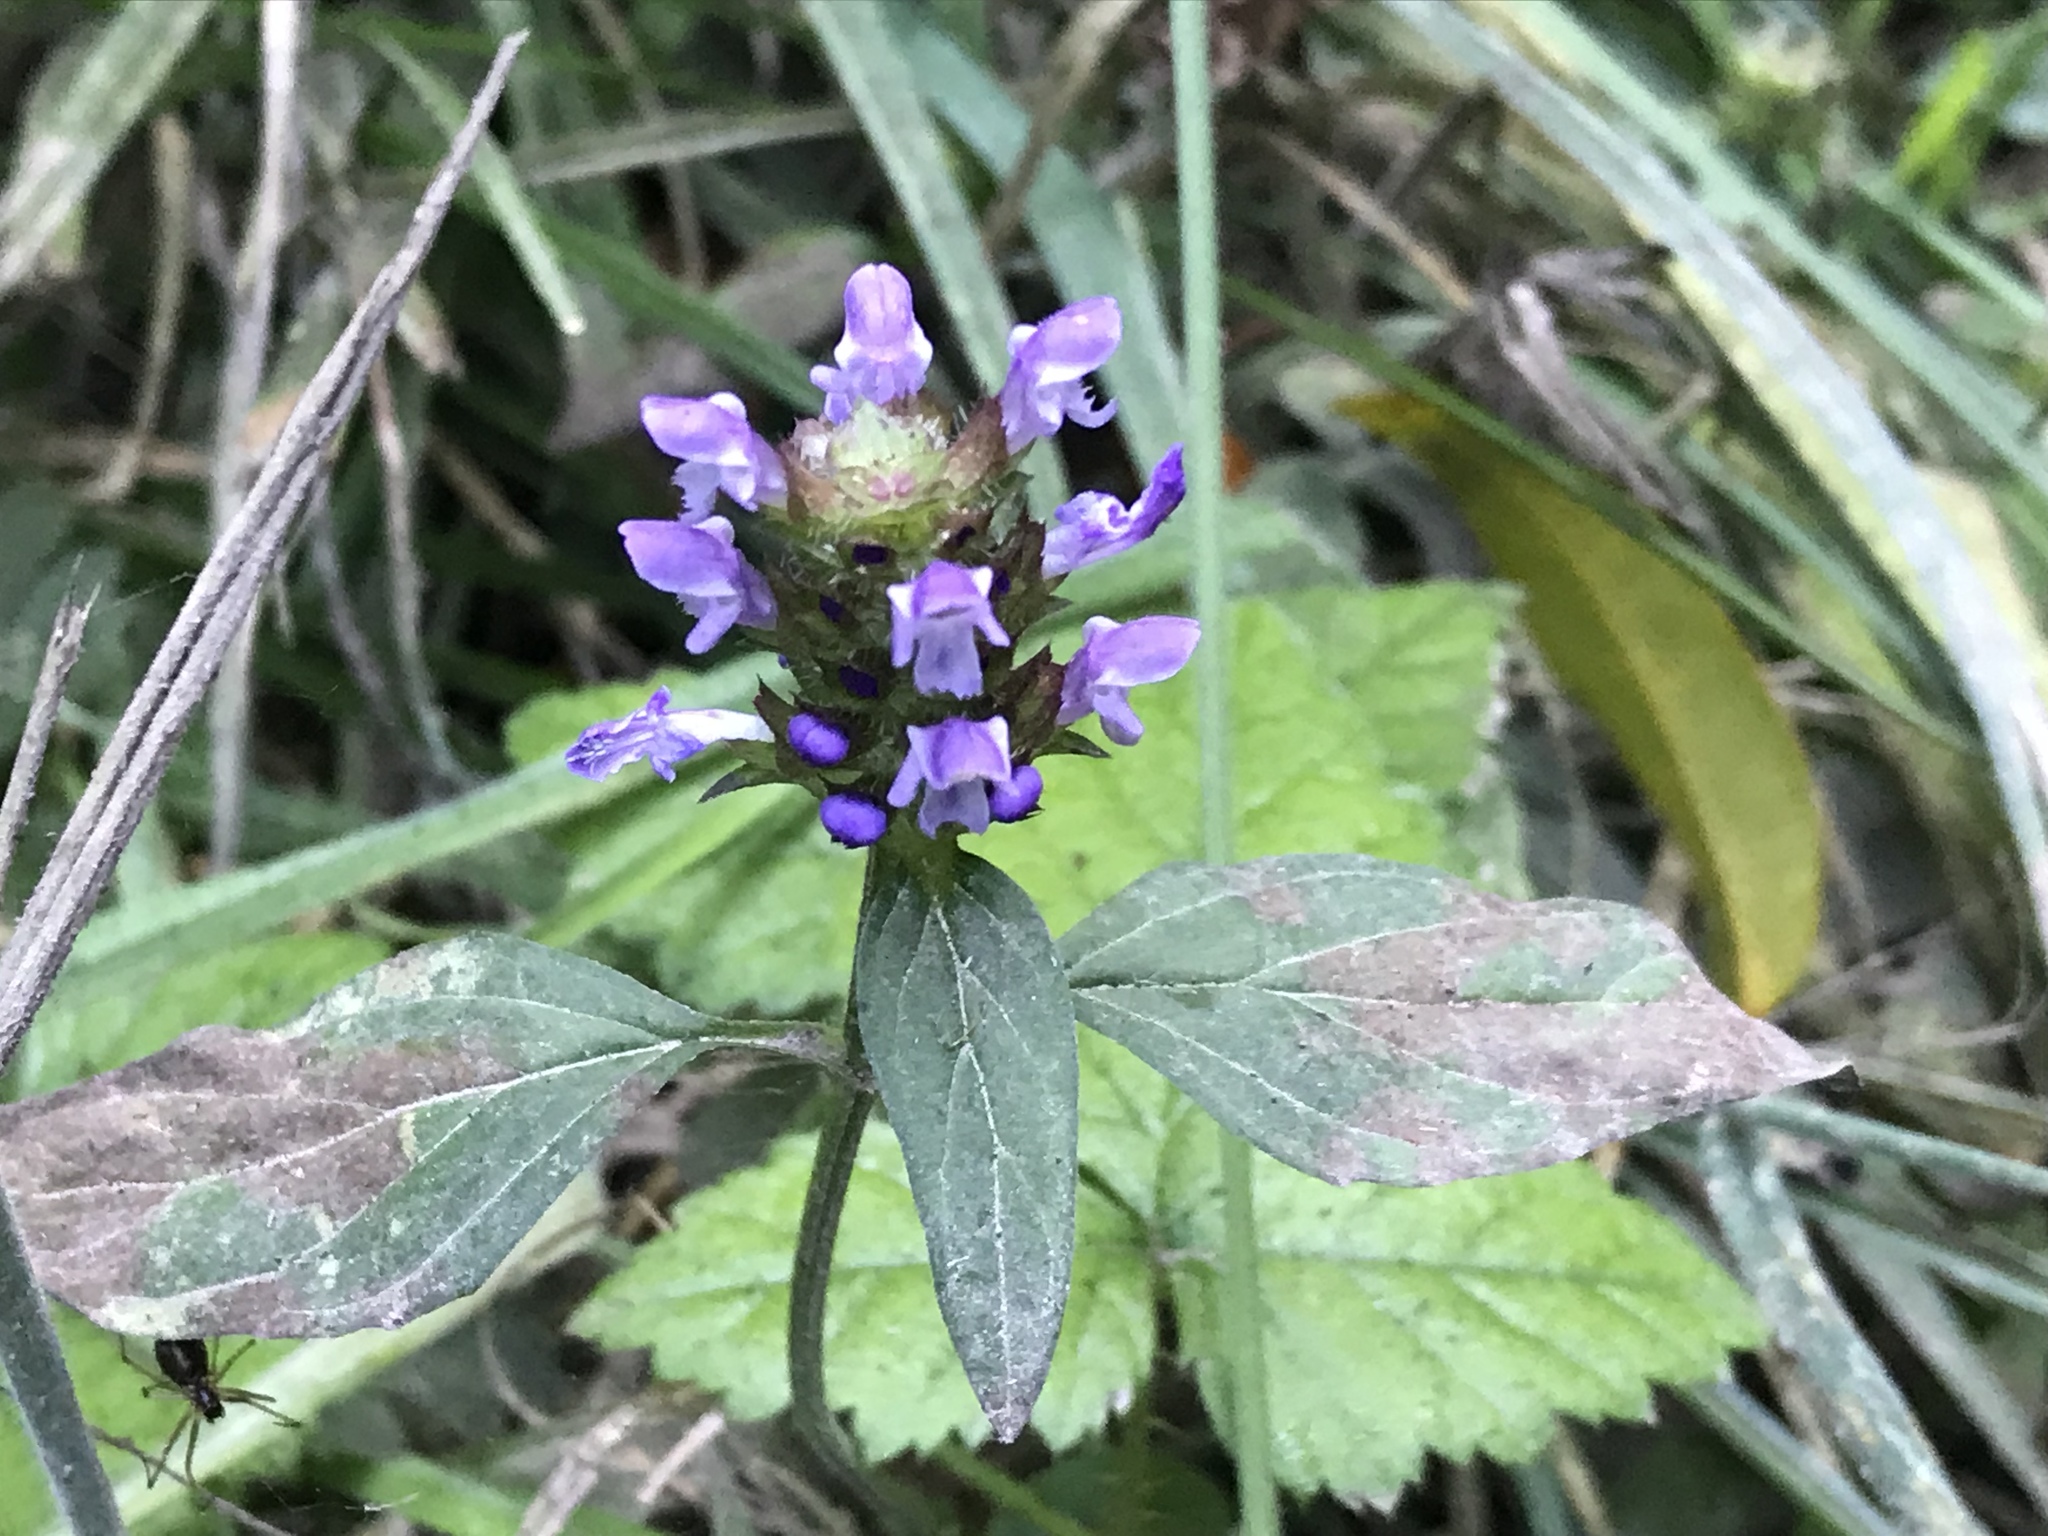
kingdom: Plantae
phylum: Tracheophyta
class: Magnoliopsida
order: Lamiales
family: Lamiaceae
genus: Prunella
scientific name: Prunella vulgaris
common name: Heal-all
